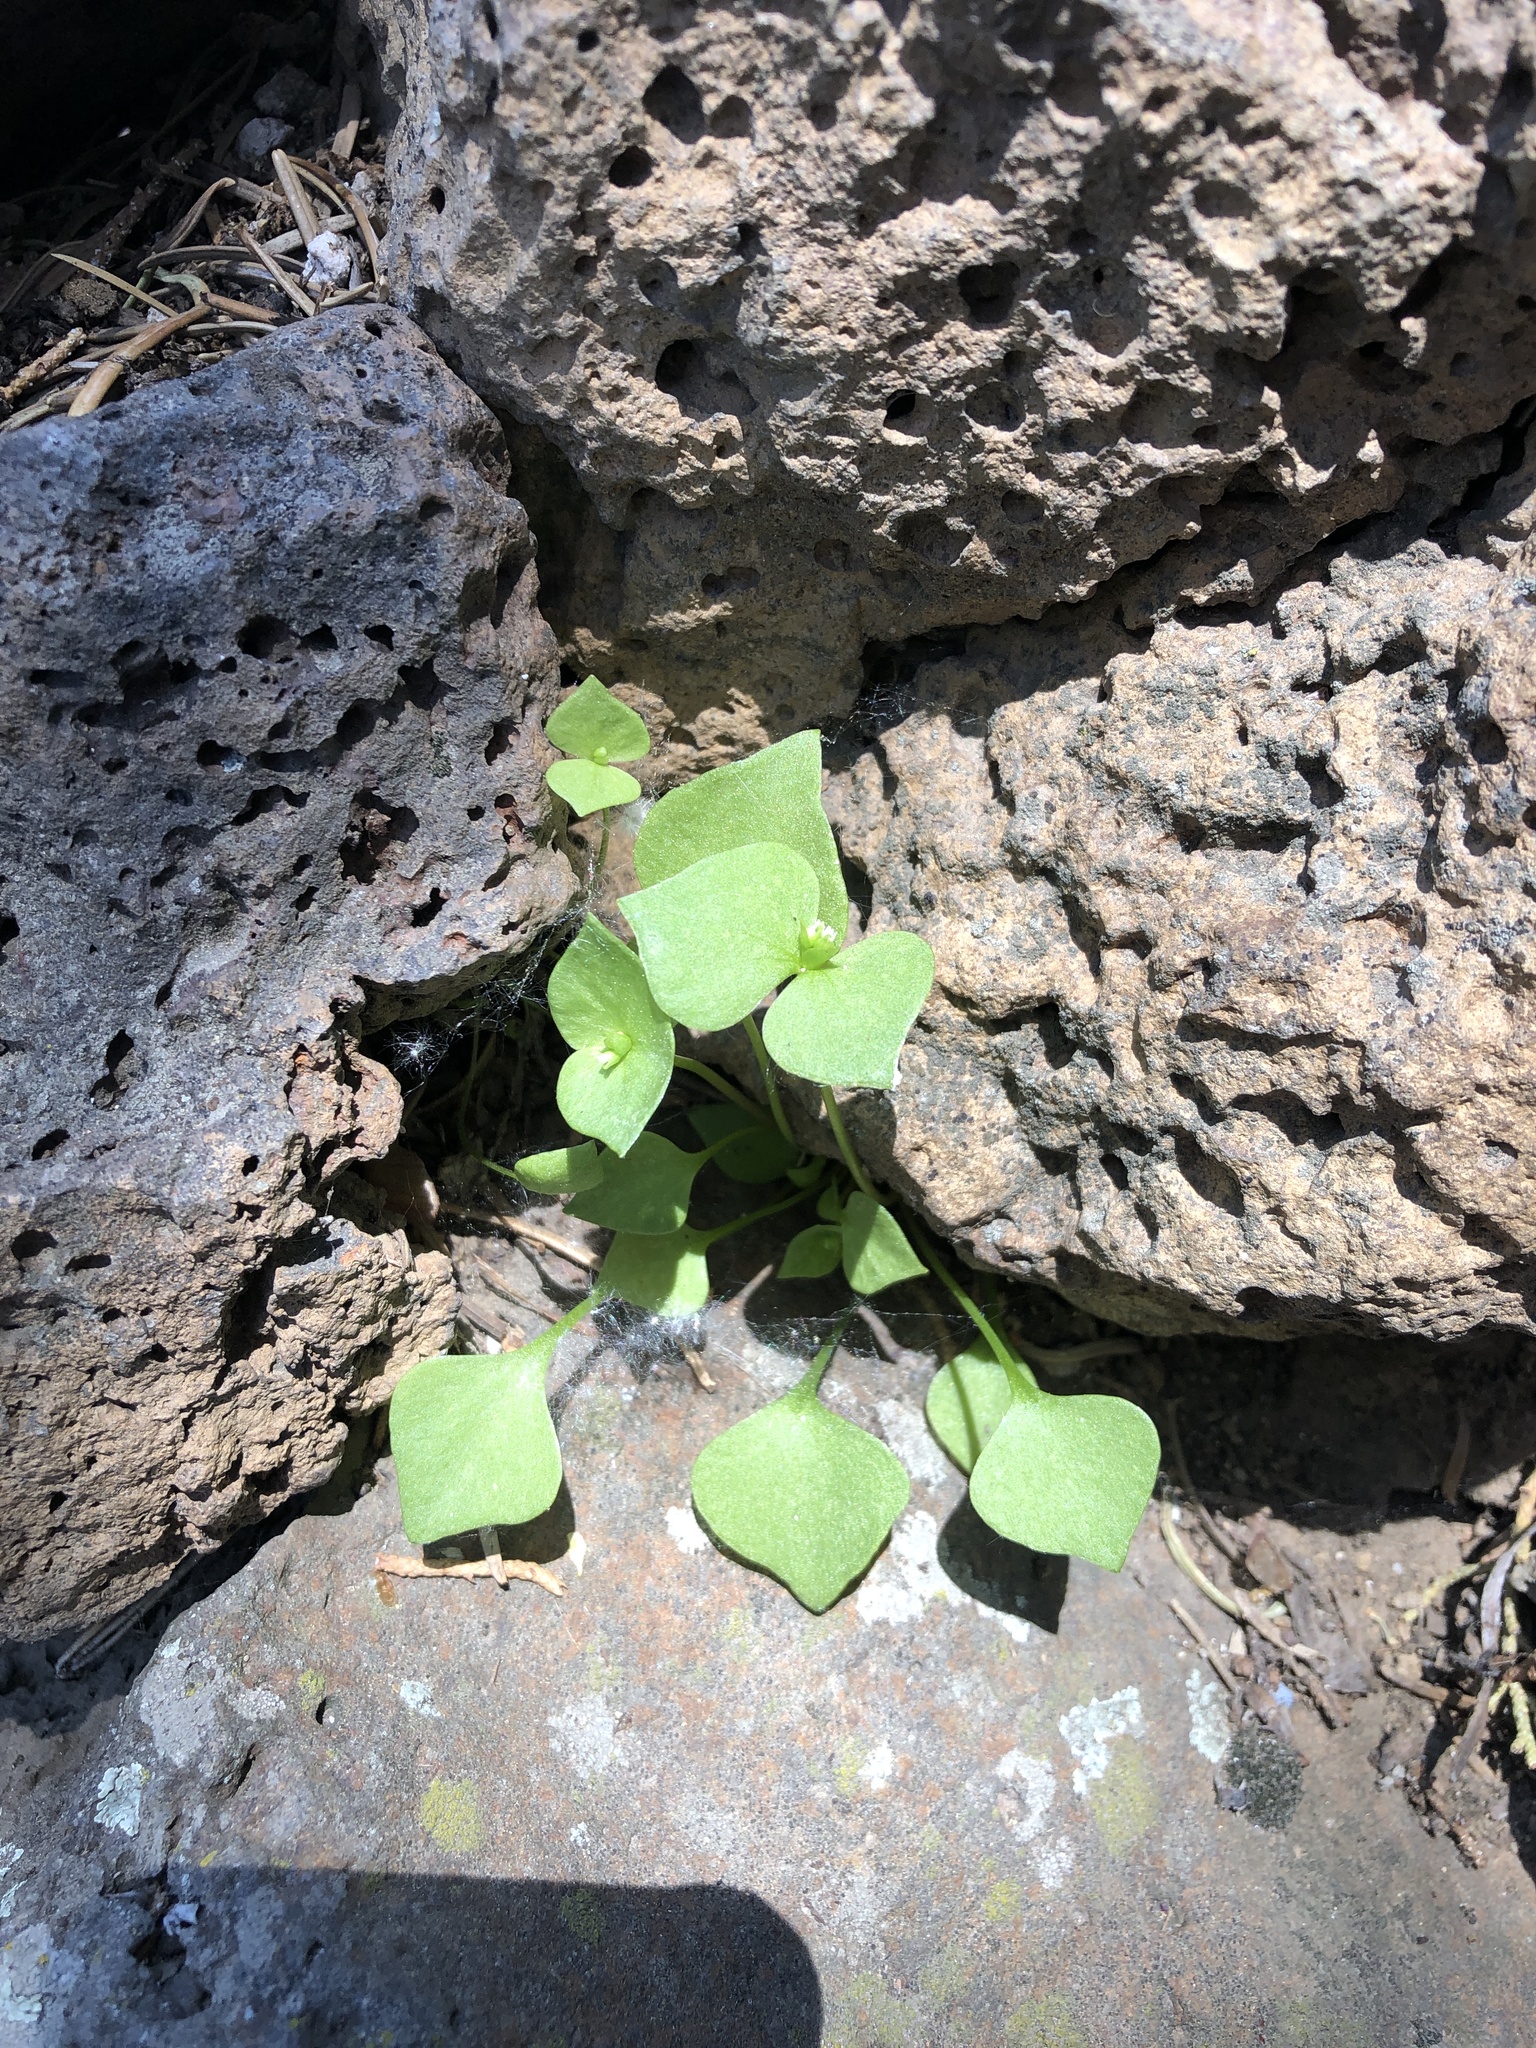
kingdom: Plantae
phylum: Tracheophyta
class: Magnoliopsida
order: Caryophyllales
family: Montiaceae
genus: Claytonia
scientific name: Claytonia rubra
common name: Erubescent miner's-lettuce
